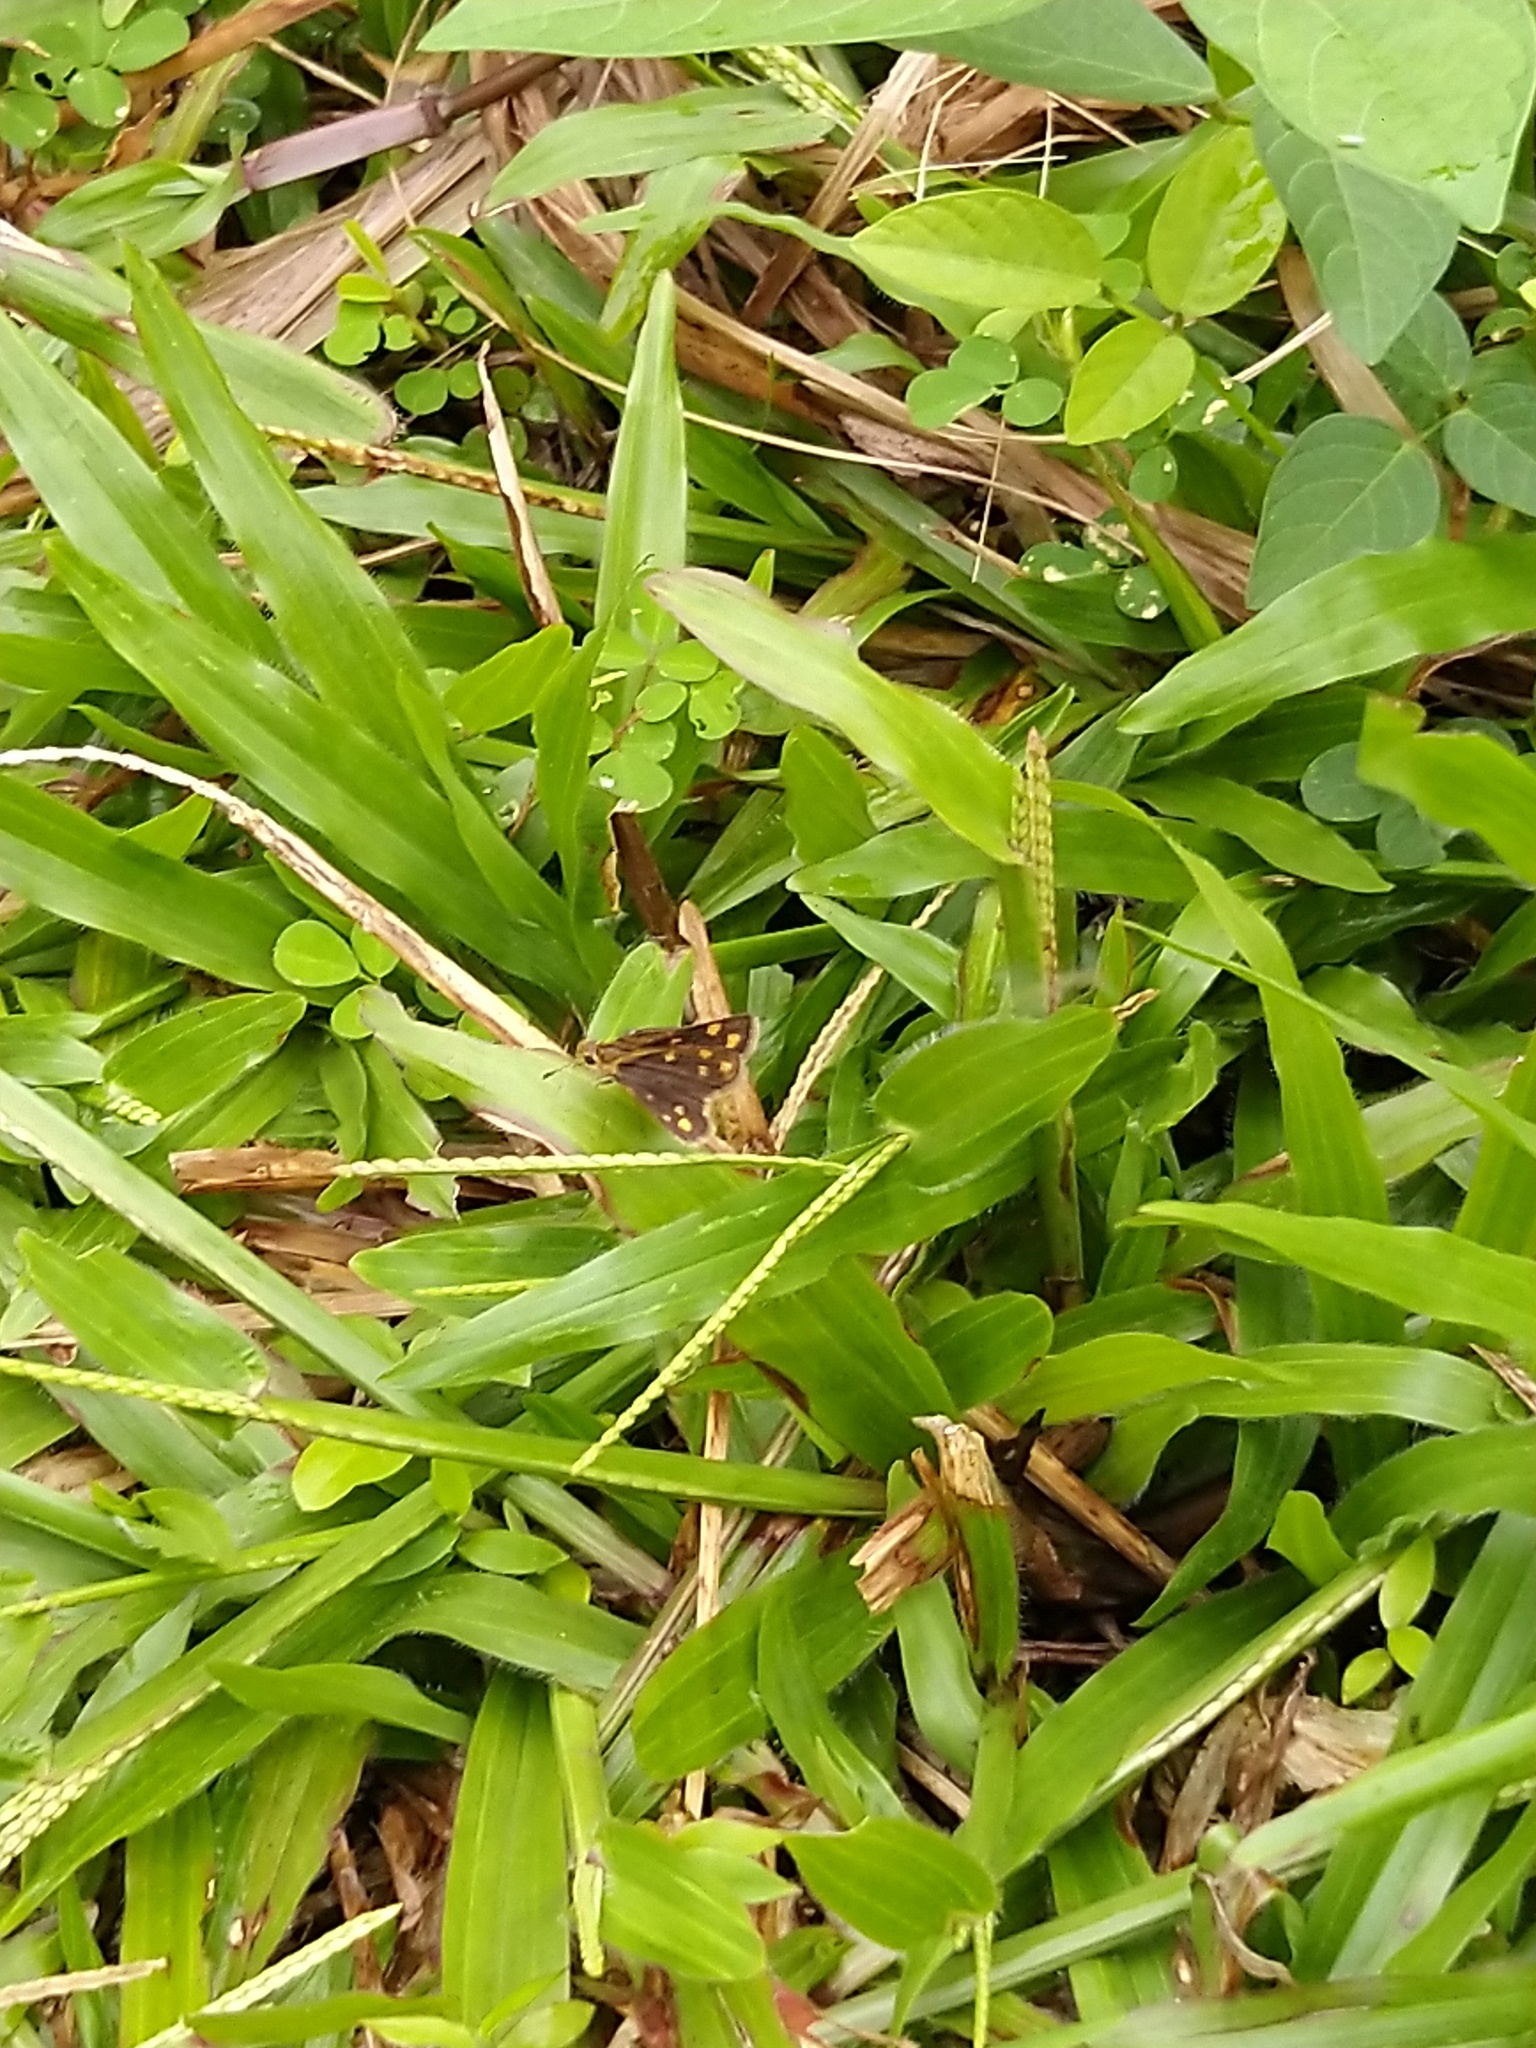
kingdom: Animalia
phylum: Arthropoda
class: Insecta
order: Lepidoptera
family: Hesperiidae
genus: Taractrocera
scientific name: Taractrocera ceramas
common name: Tamil grass dart
